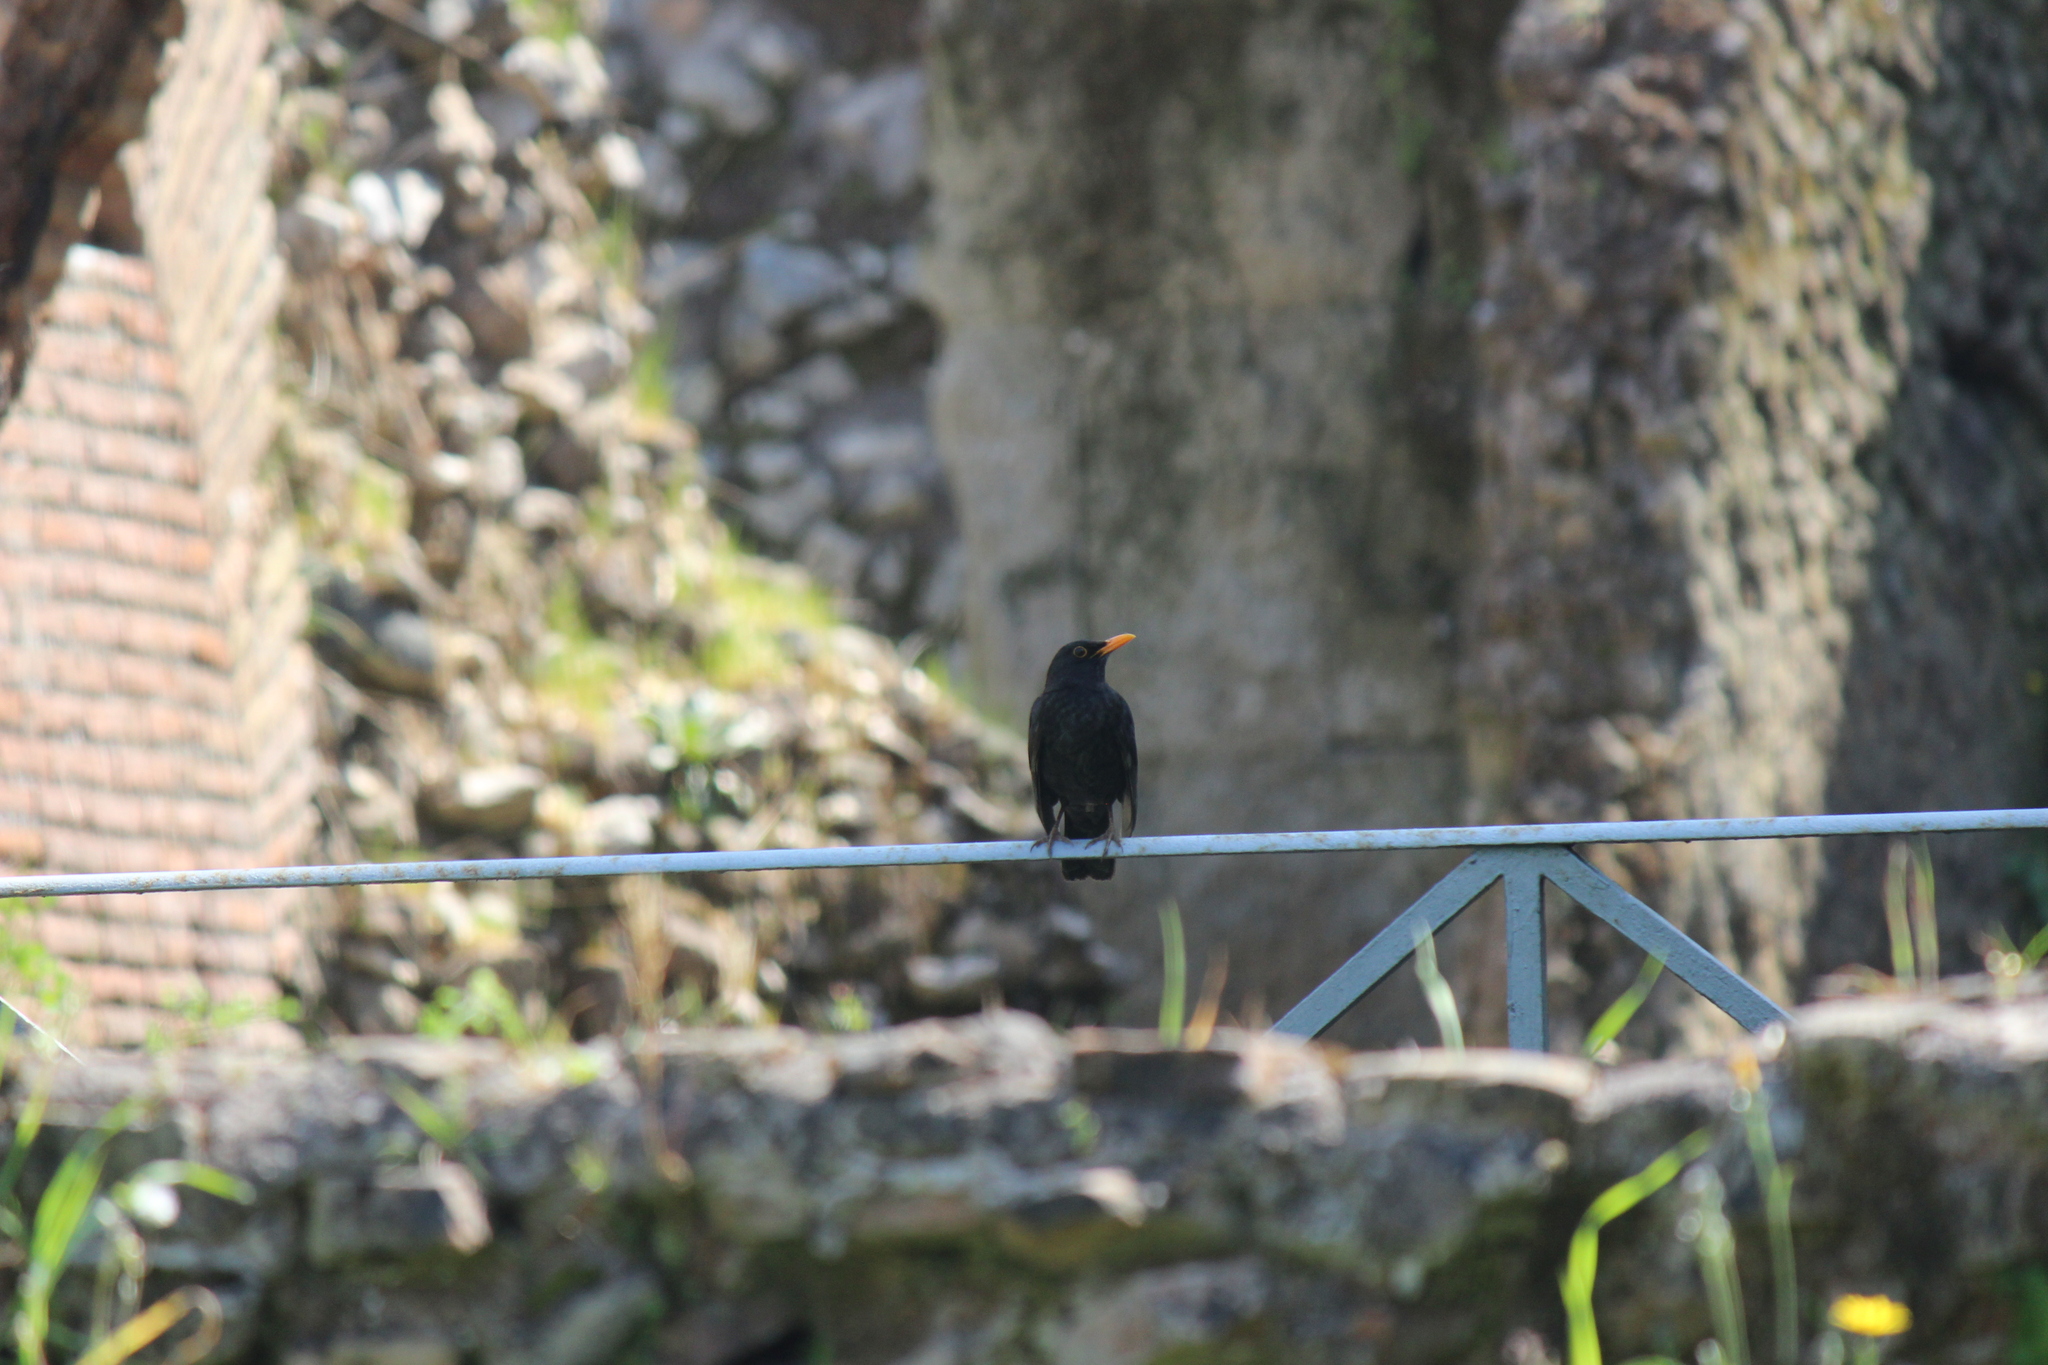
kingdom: Animalia
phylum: Chordata
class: Aves
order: Passeriformes
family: Turdidae
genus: Turdus
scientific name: Turdus merula
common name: Common blackbird
